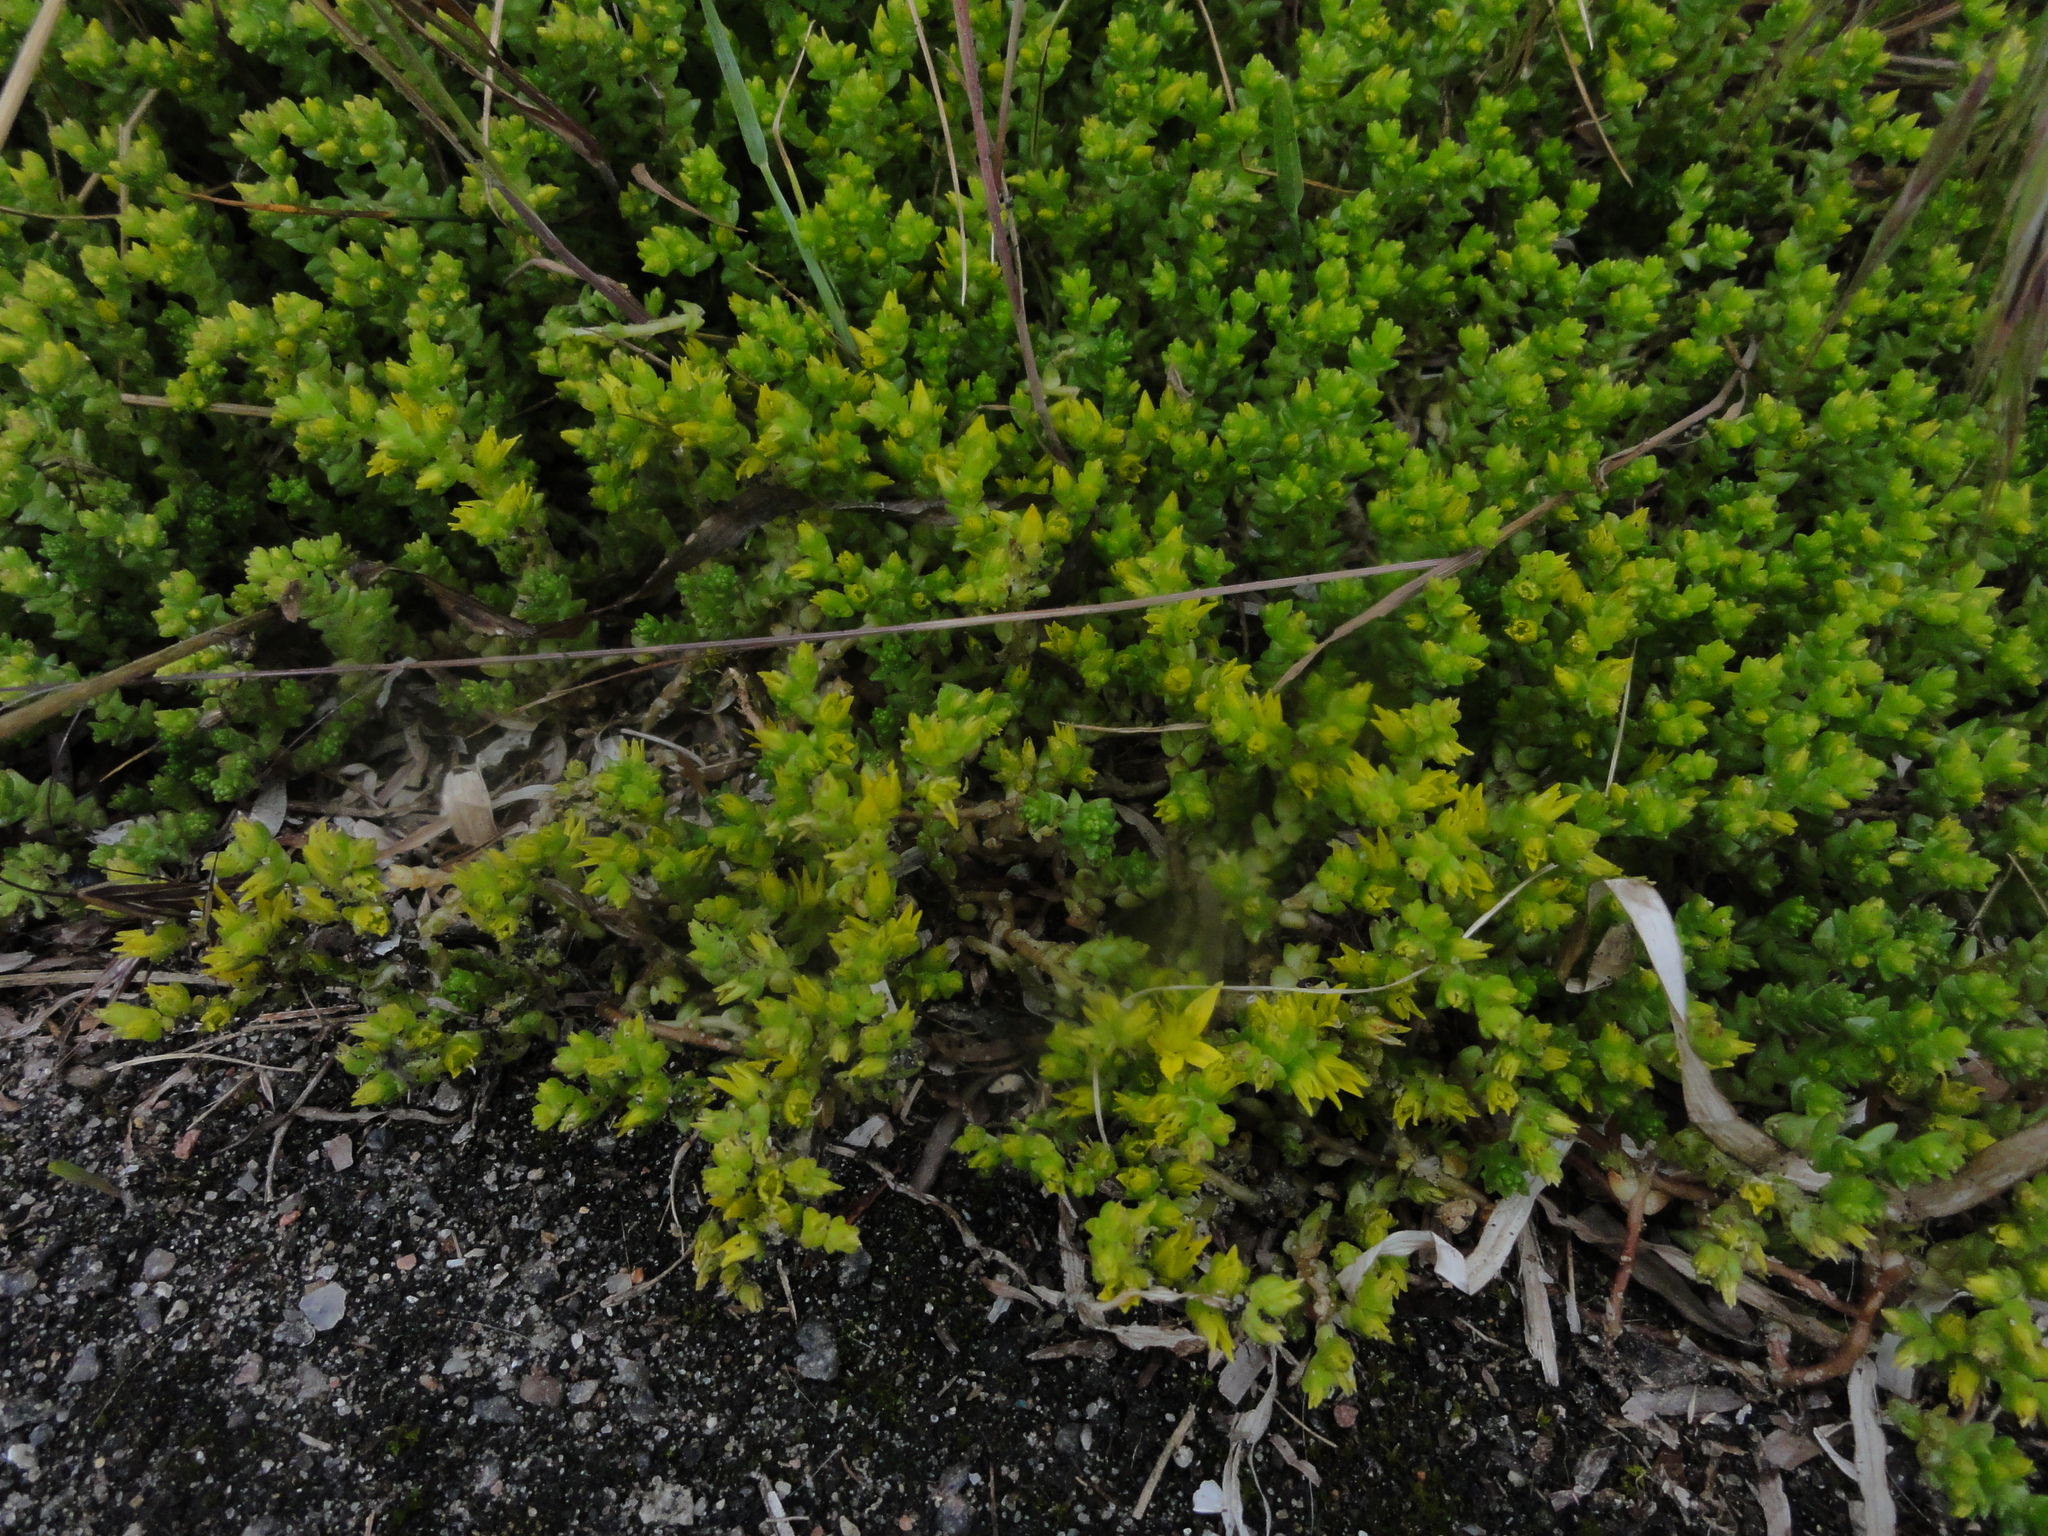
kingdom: Plantae
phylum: Tracheophyta
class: Magnoliopsida
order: Saxifragales
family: Crassulaceae
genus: Sedum
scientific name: Sedum acre
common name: Biting stonecrop
